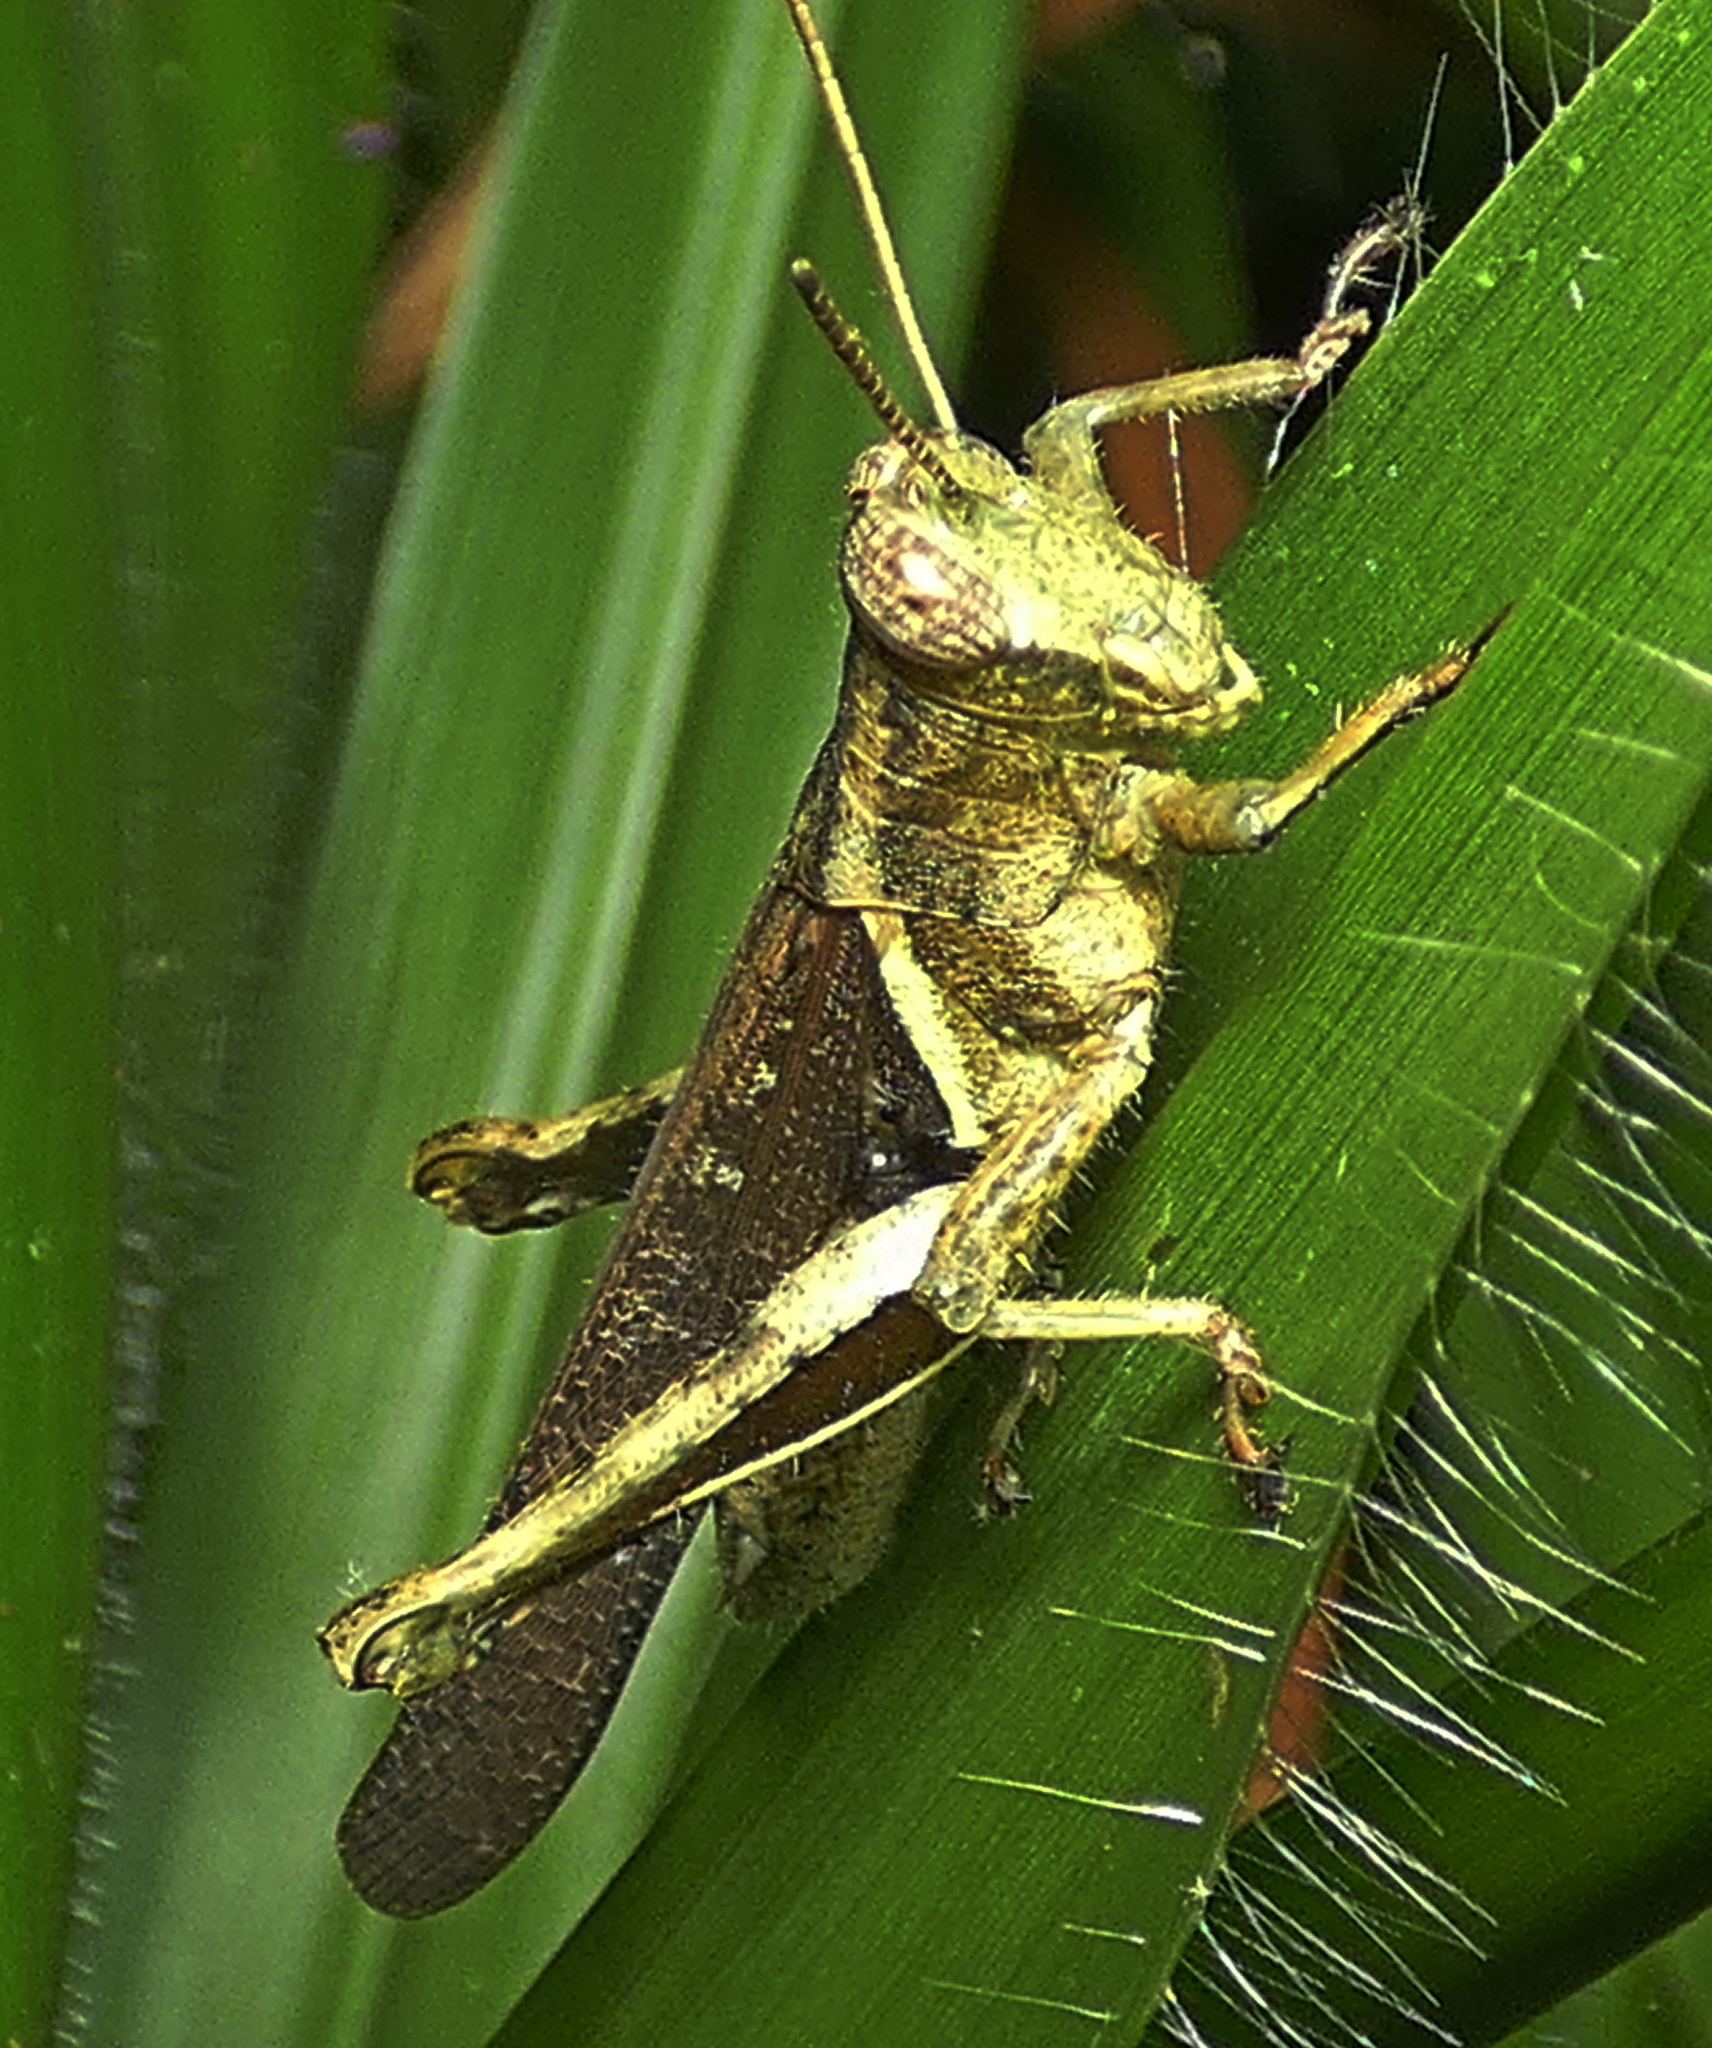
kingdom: Animalia
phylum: Arthropoda
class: Insecta
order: Orthoptera
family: Acrididae
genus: Abracris
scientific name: Abracris flavolineata
